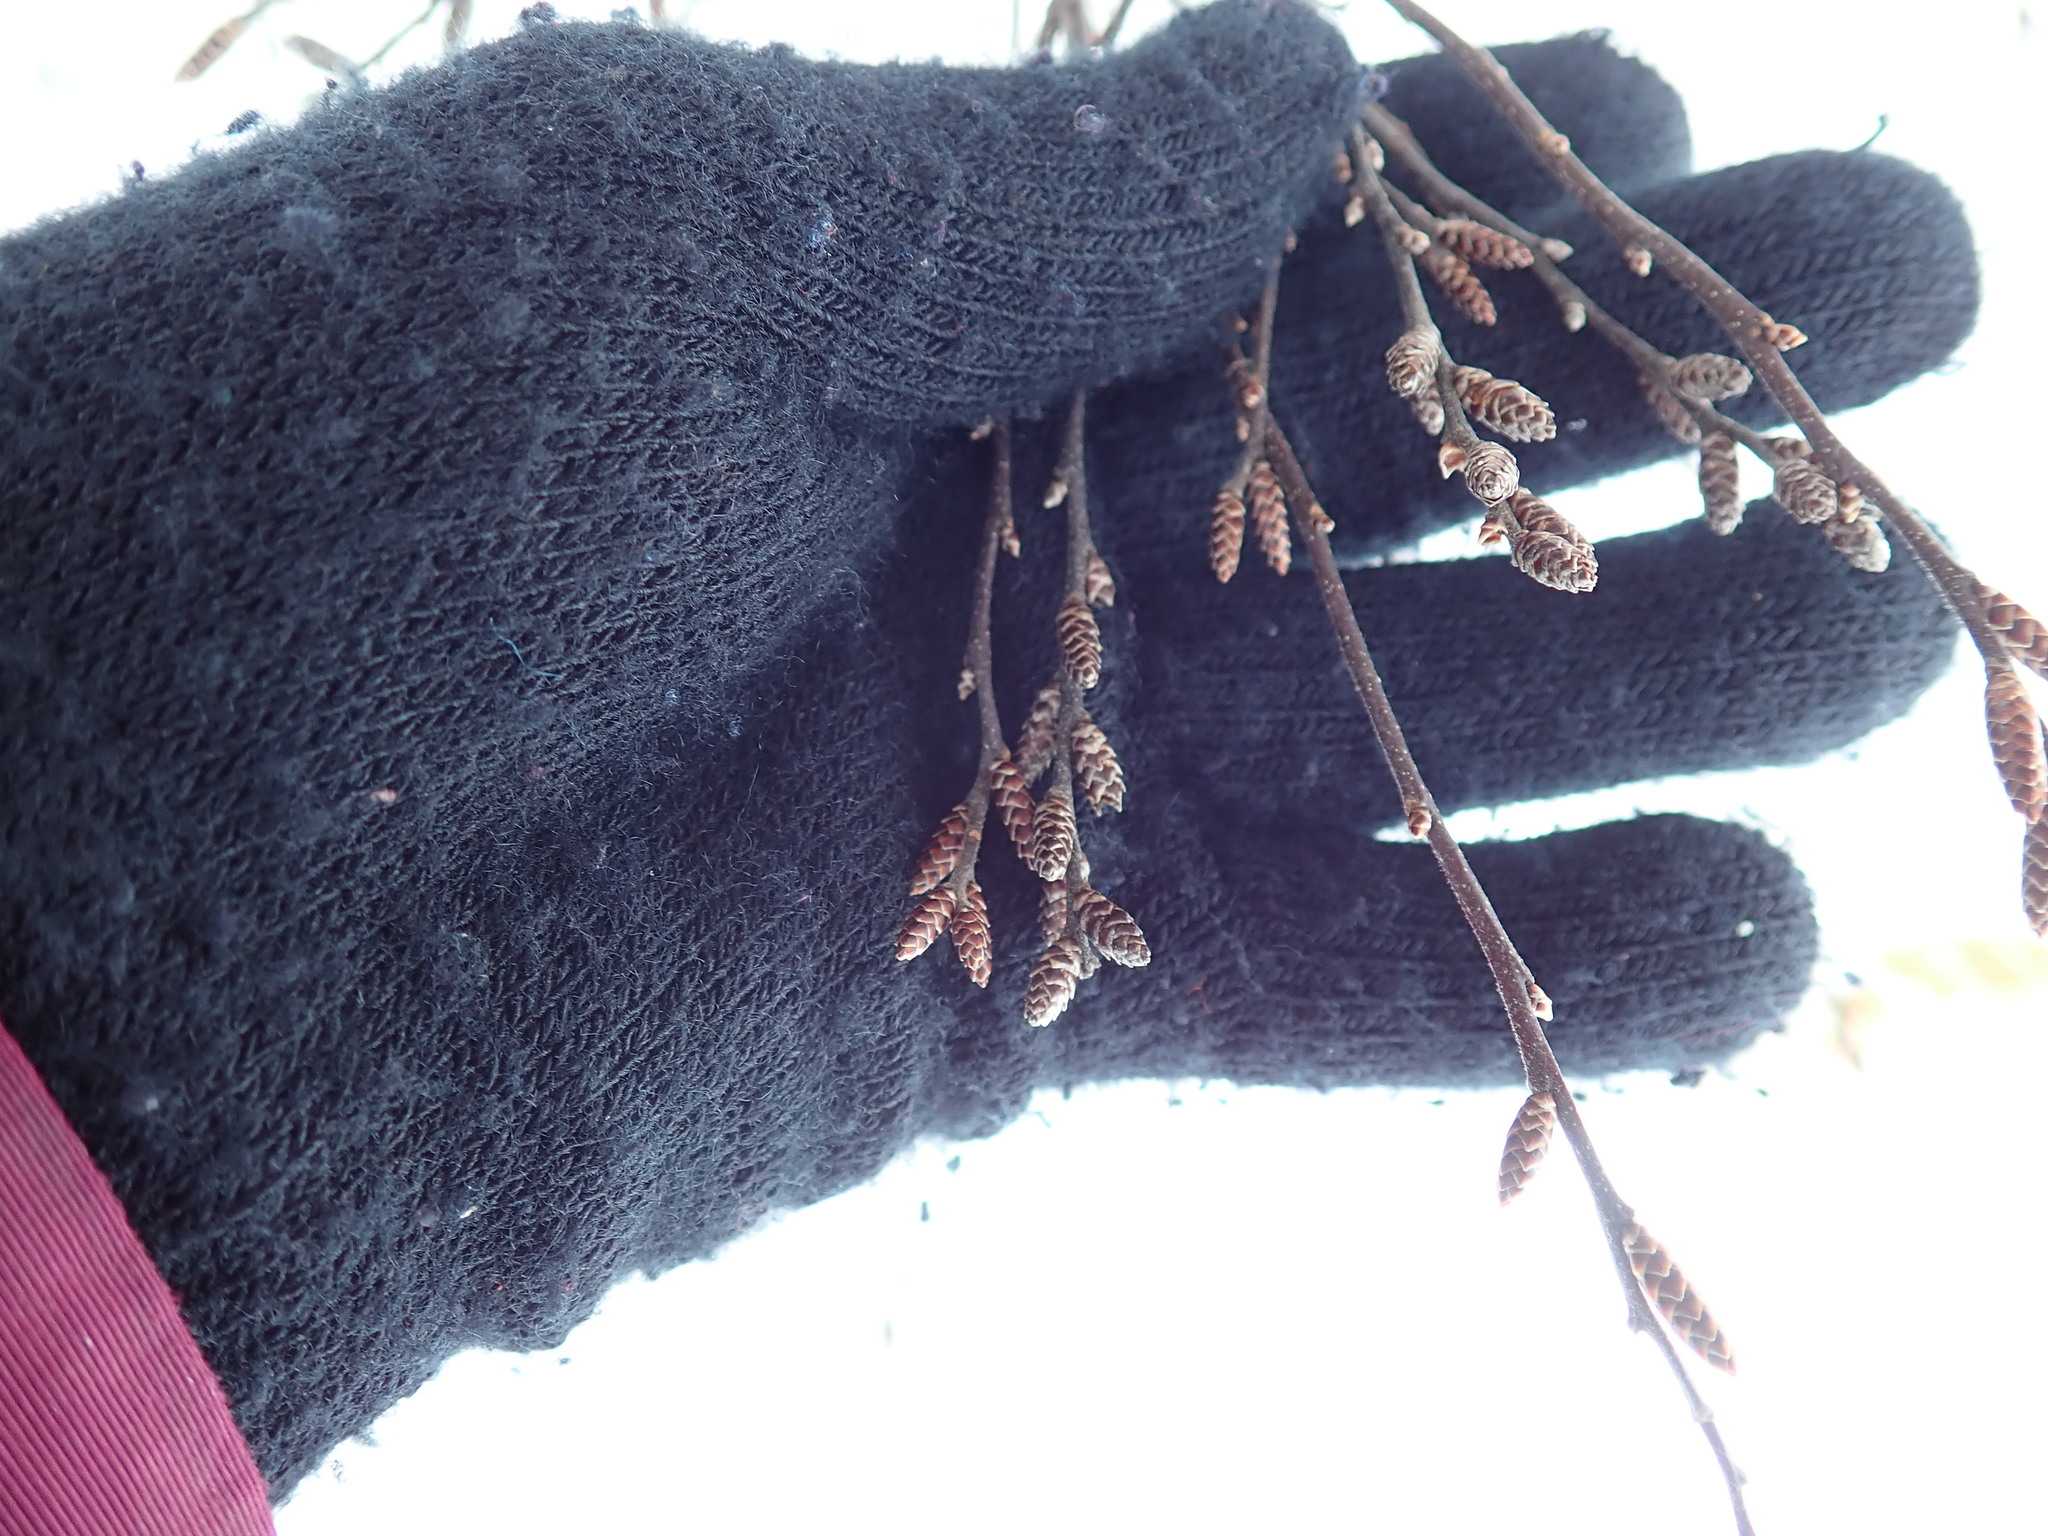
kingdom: Plantae
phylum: Tracheophyta
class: Magnoliopsida
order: Fagales
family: Myricaceae
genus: Myrica
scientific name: Myrica gale
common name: Sweet gale
